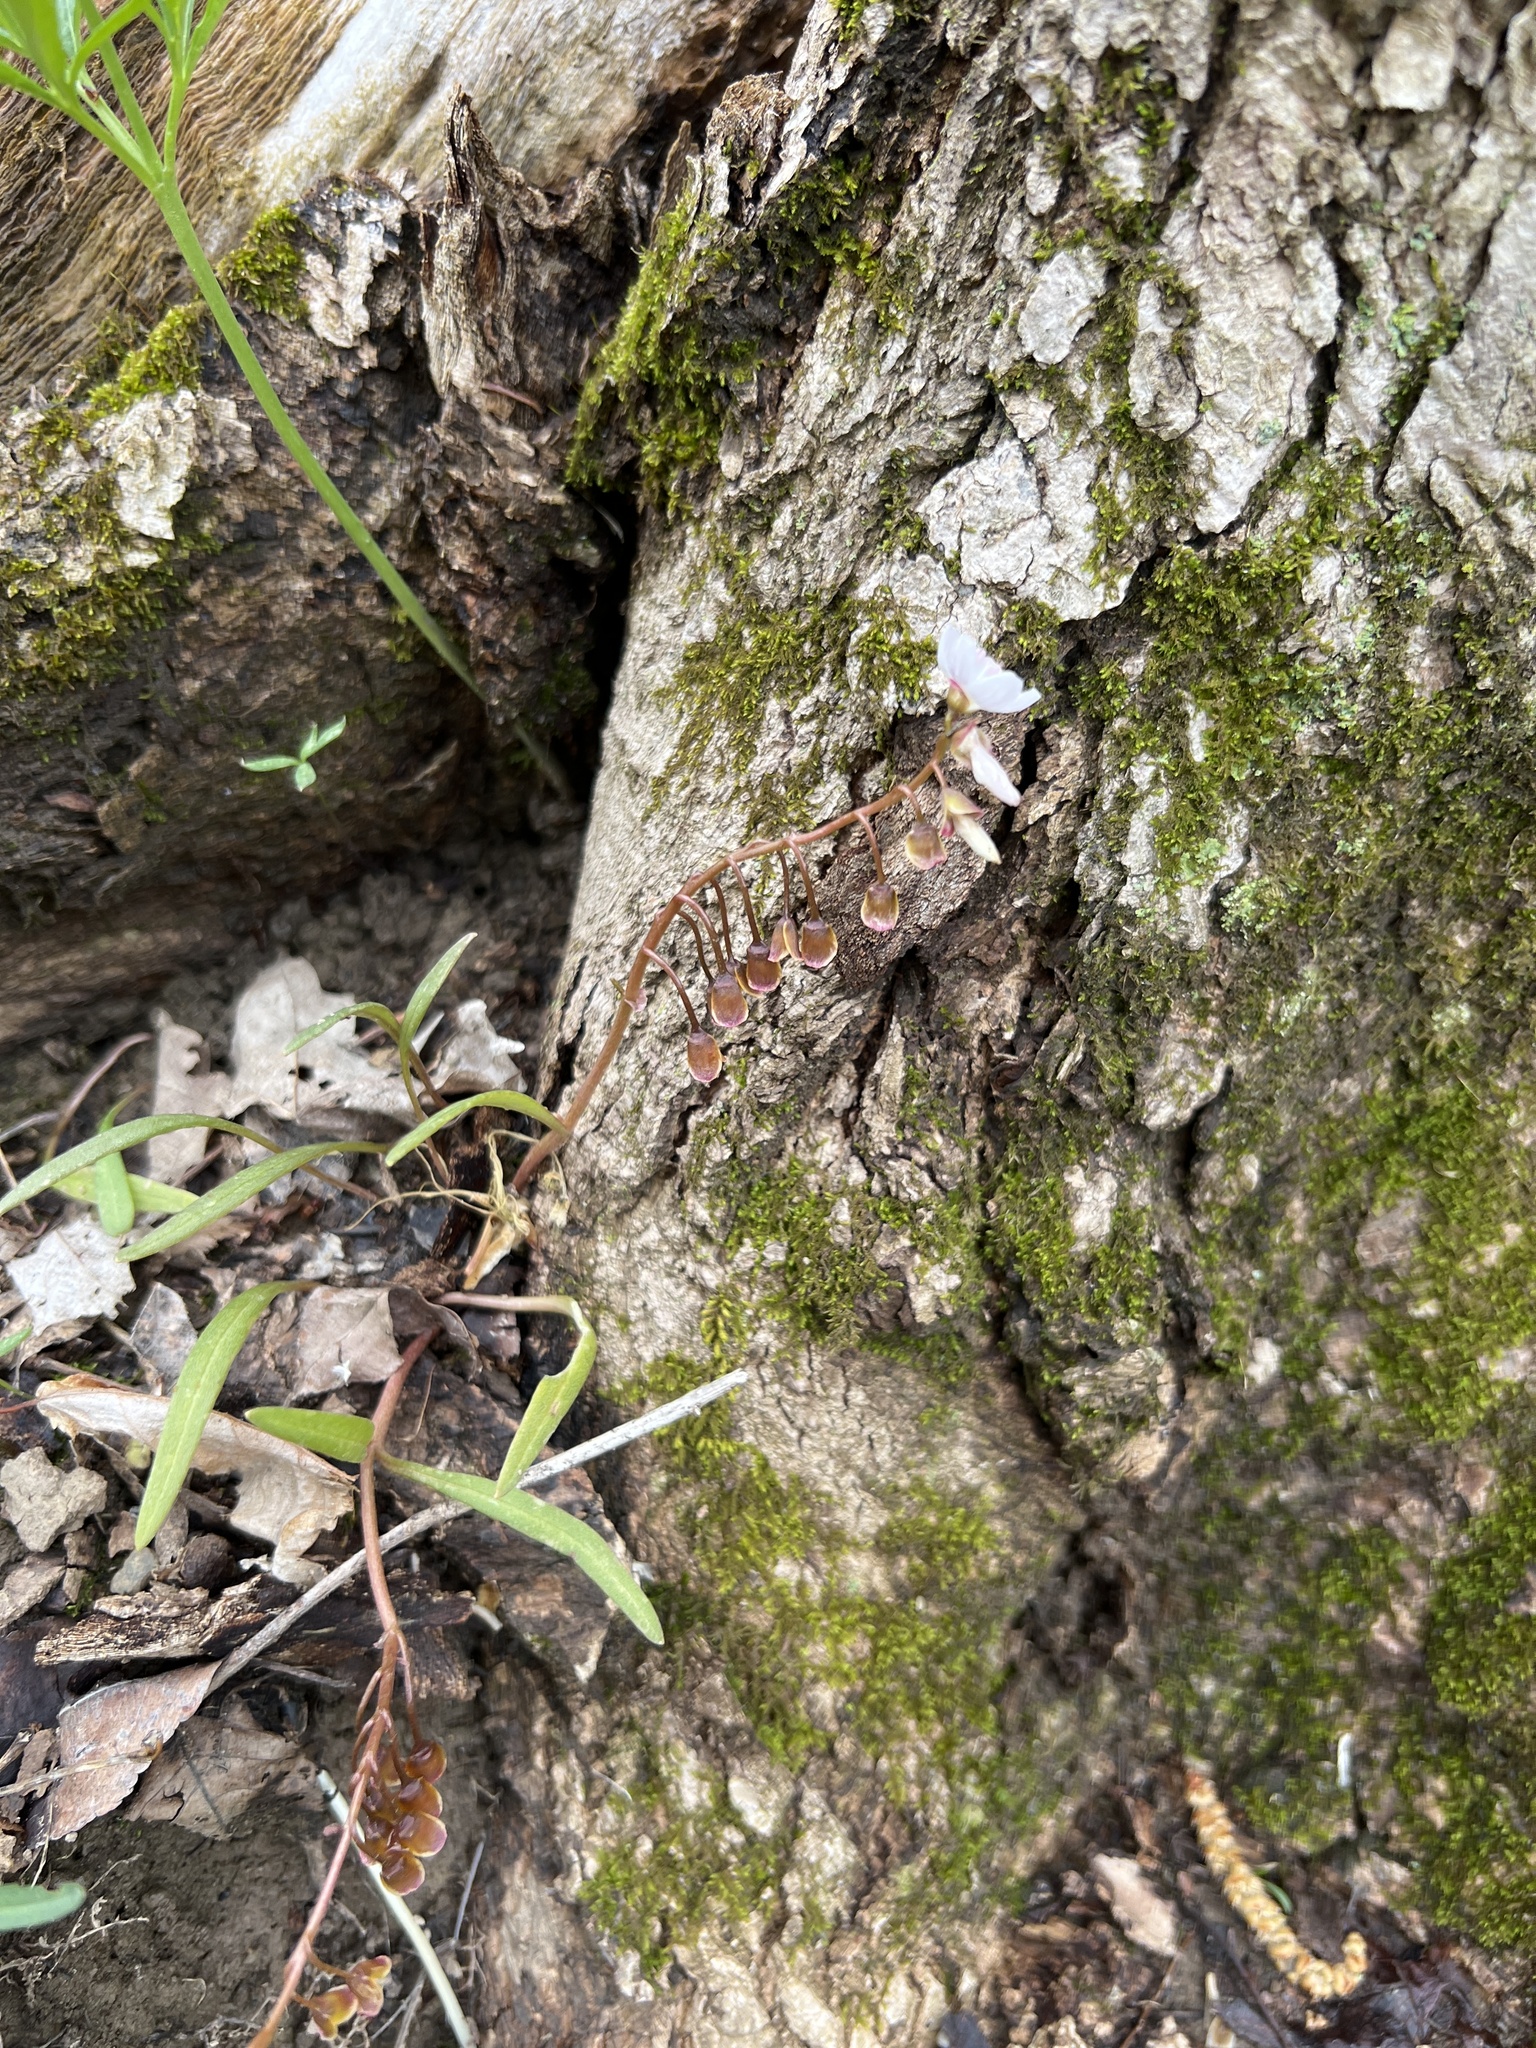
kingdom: Plantae
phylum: Tracheophyta
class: Magnoliopsida
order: Caryophyllales
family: Montiaceae
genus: Claytonia
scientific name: Claytonia virginica
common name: Virginia springbeauty
